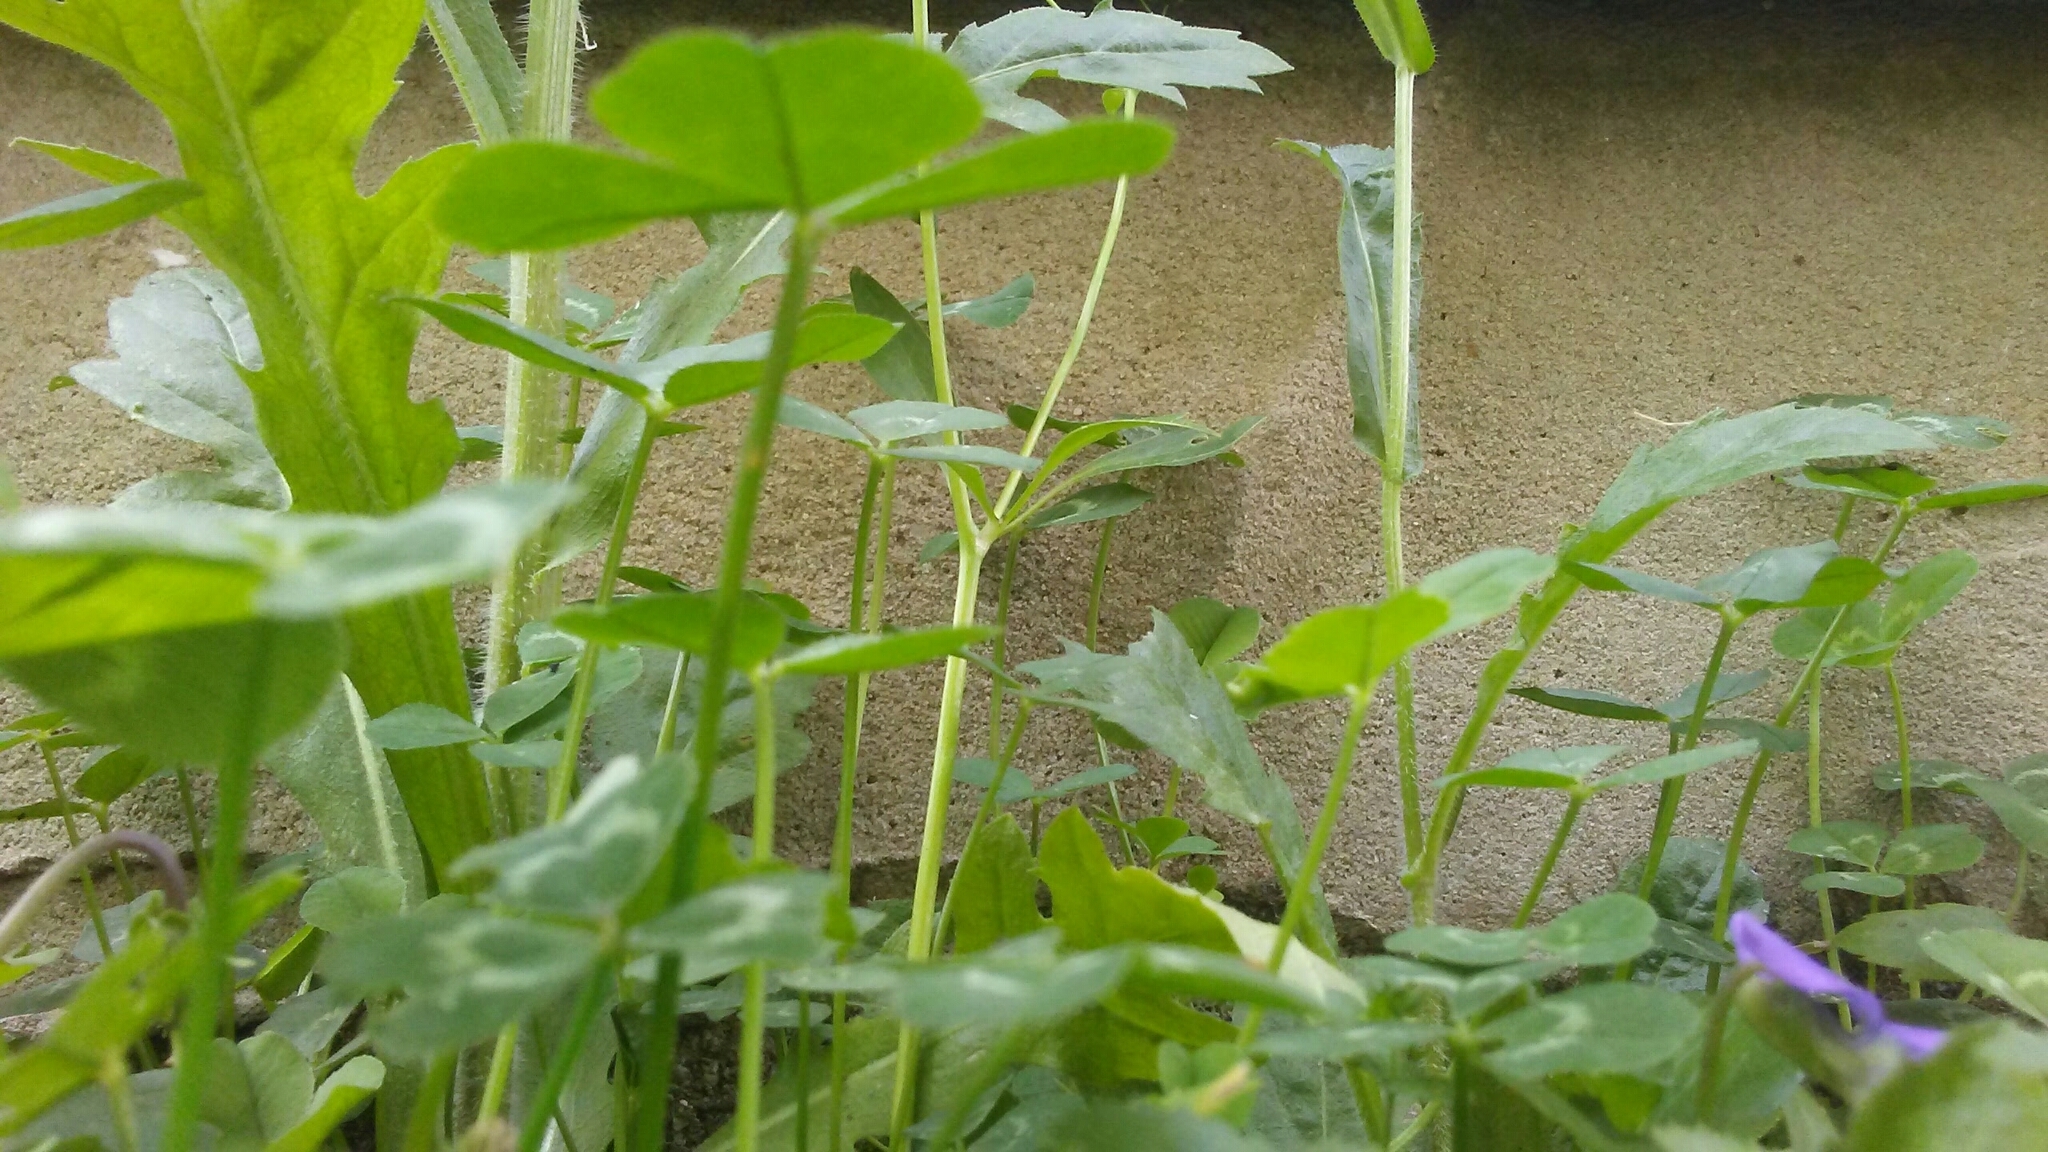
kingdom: Plantae
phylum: Tracheophyta
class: Magnoliopsida
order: Fabales
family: Fabaceae
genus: Trifolium
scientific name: Trifolium repens
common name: White clover
